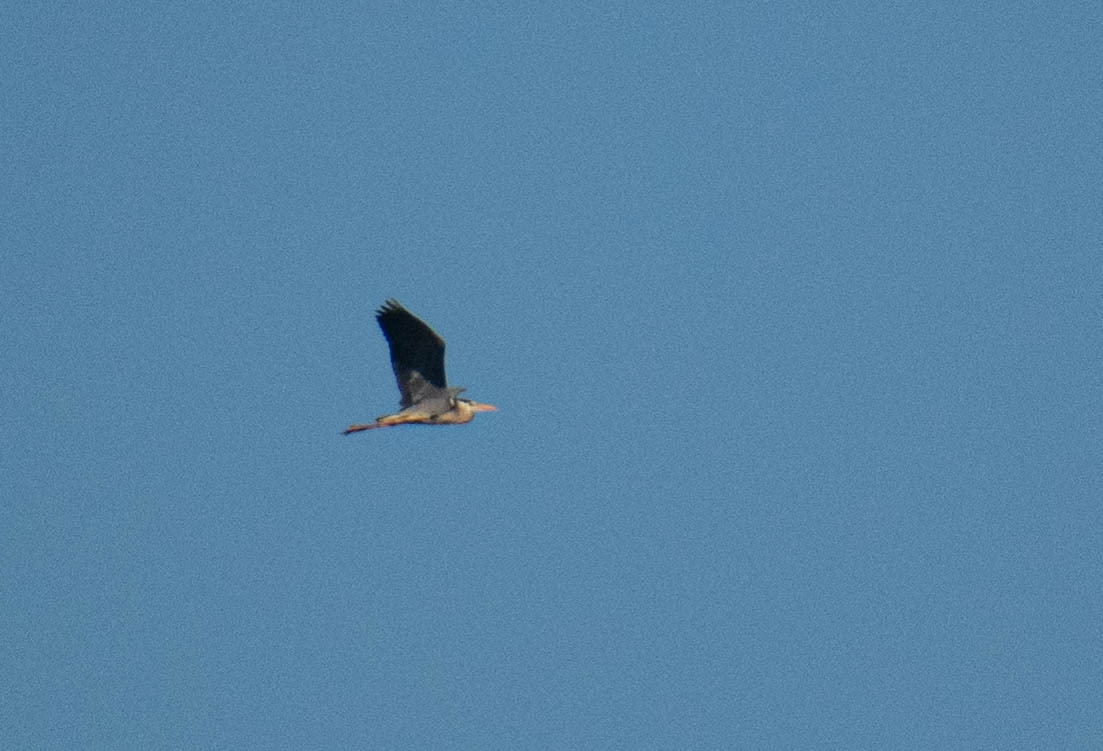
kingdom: Animalia
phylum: Chordata
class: Aves
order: Pelecaniformes
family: Ardeidae
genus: Ardea
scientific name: Ardea cinerea
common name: Grey heron
